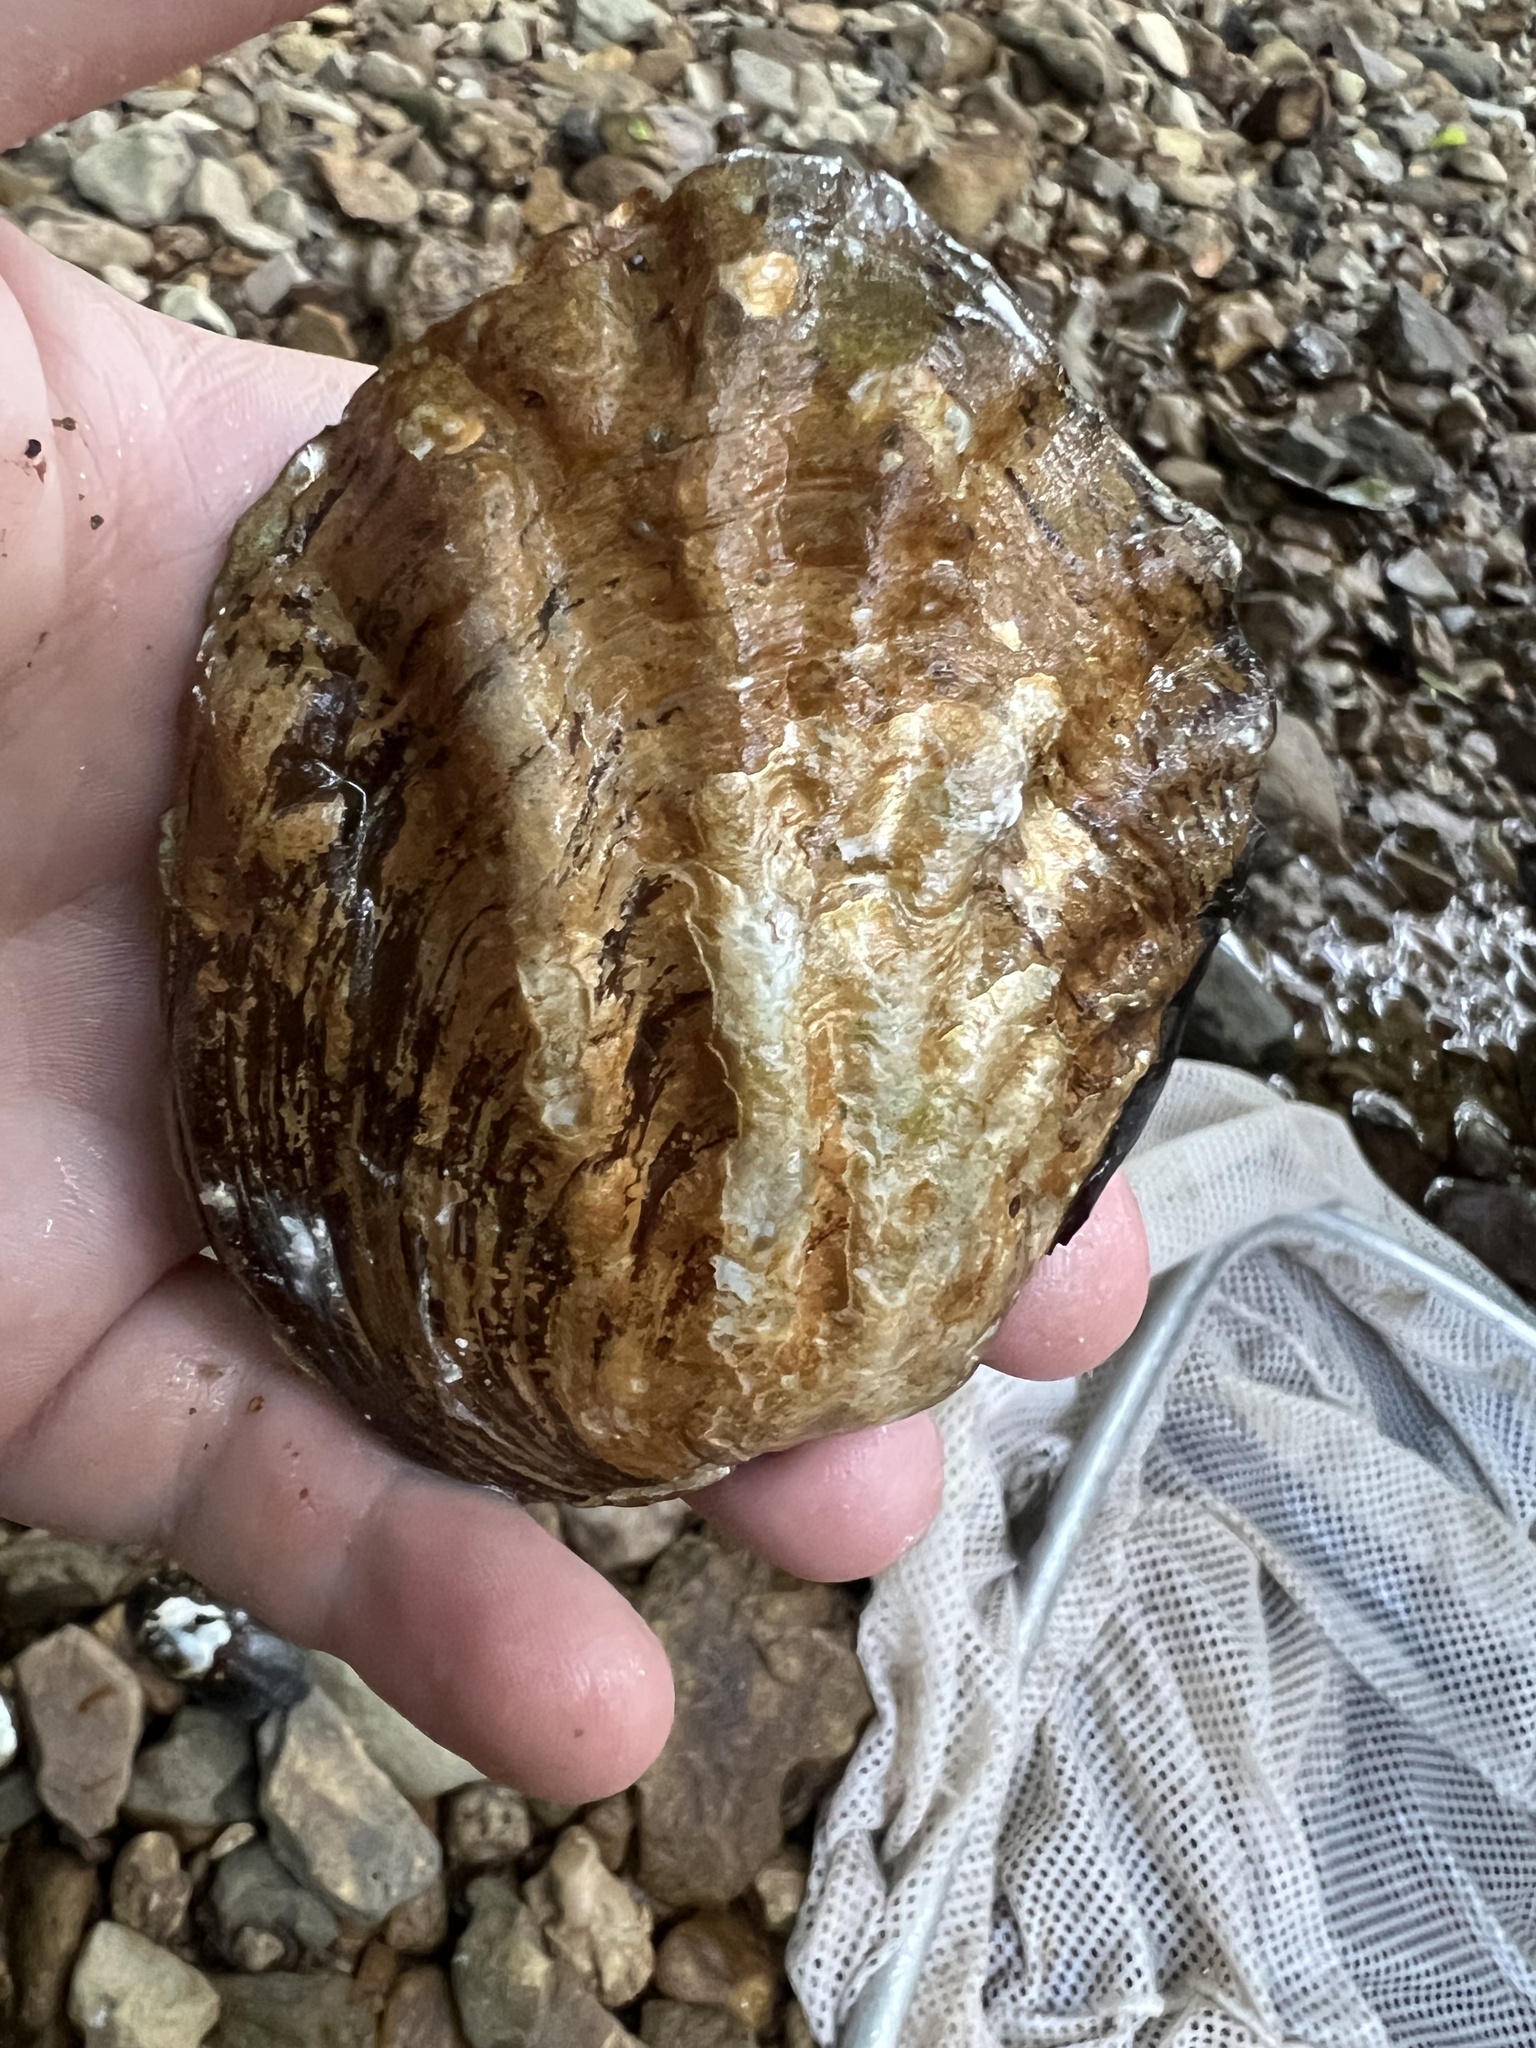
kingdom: Animalia
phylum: Mollusca
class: Bivalvia
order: Unionida
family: Unionidae
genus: Amblema
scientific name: Amblema plicata
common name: Threeridge
